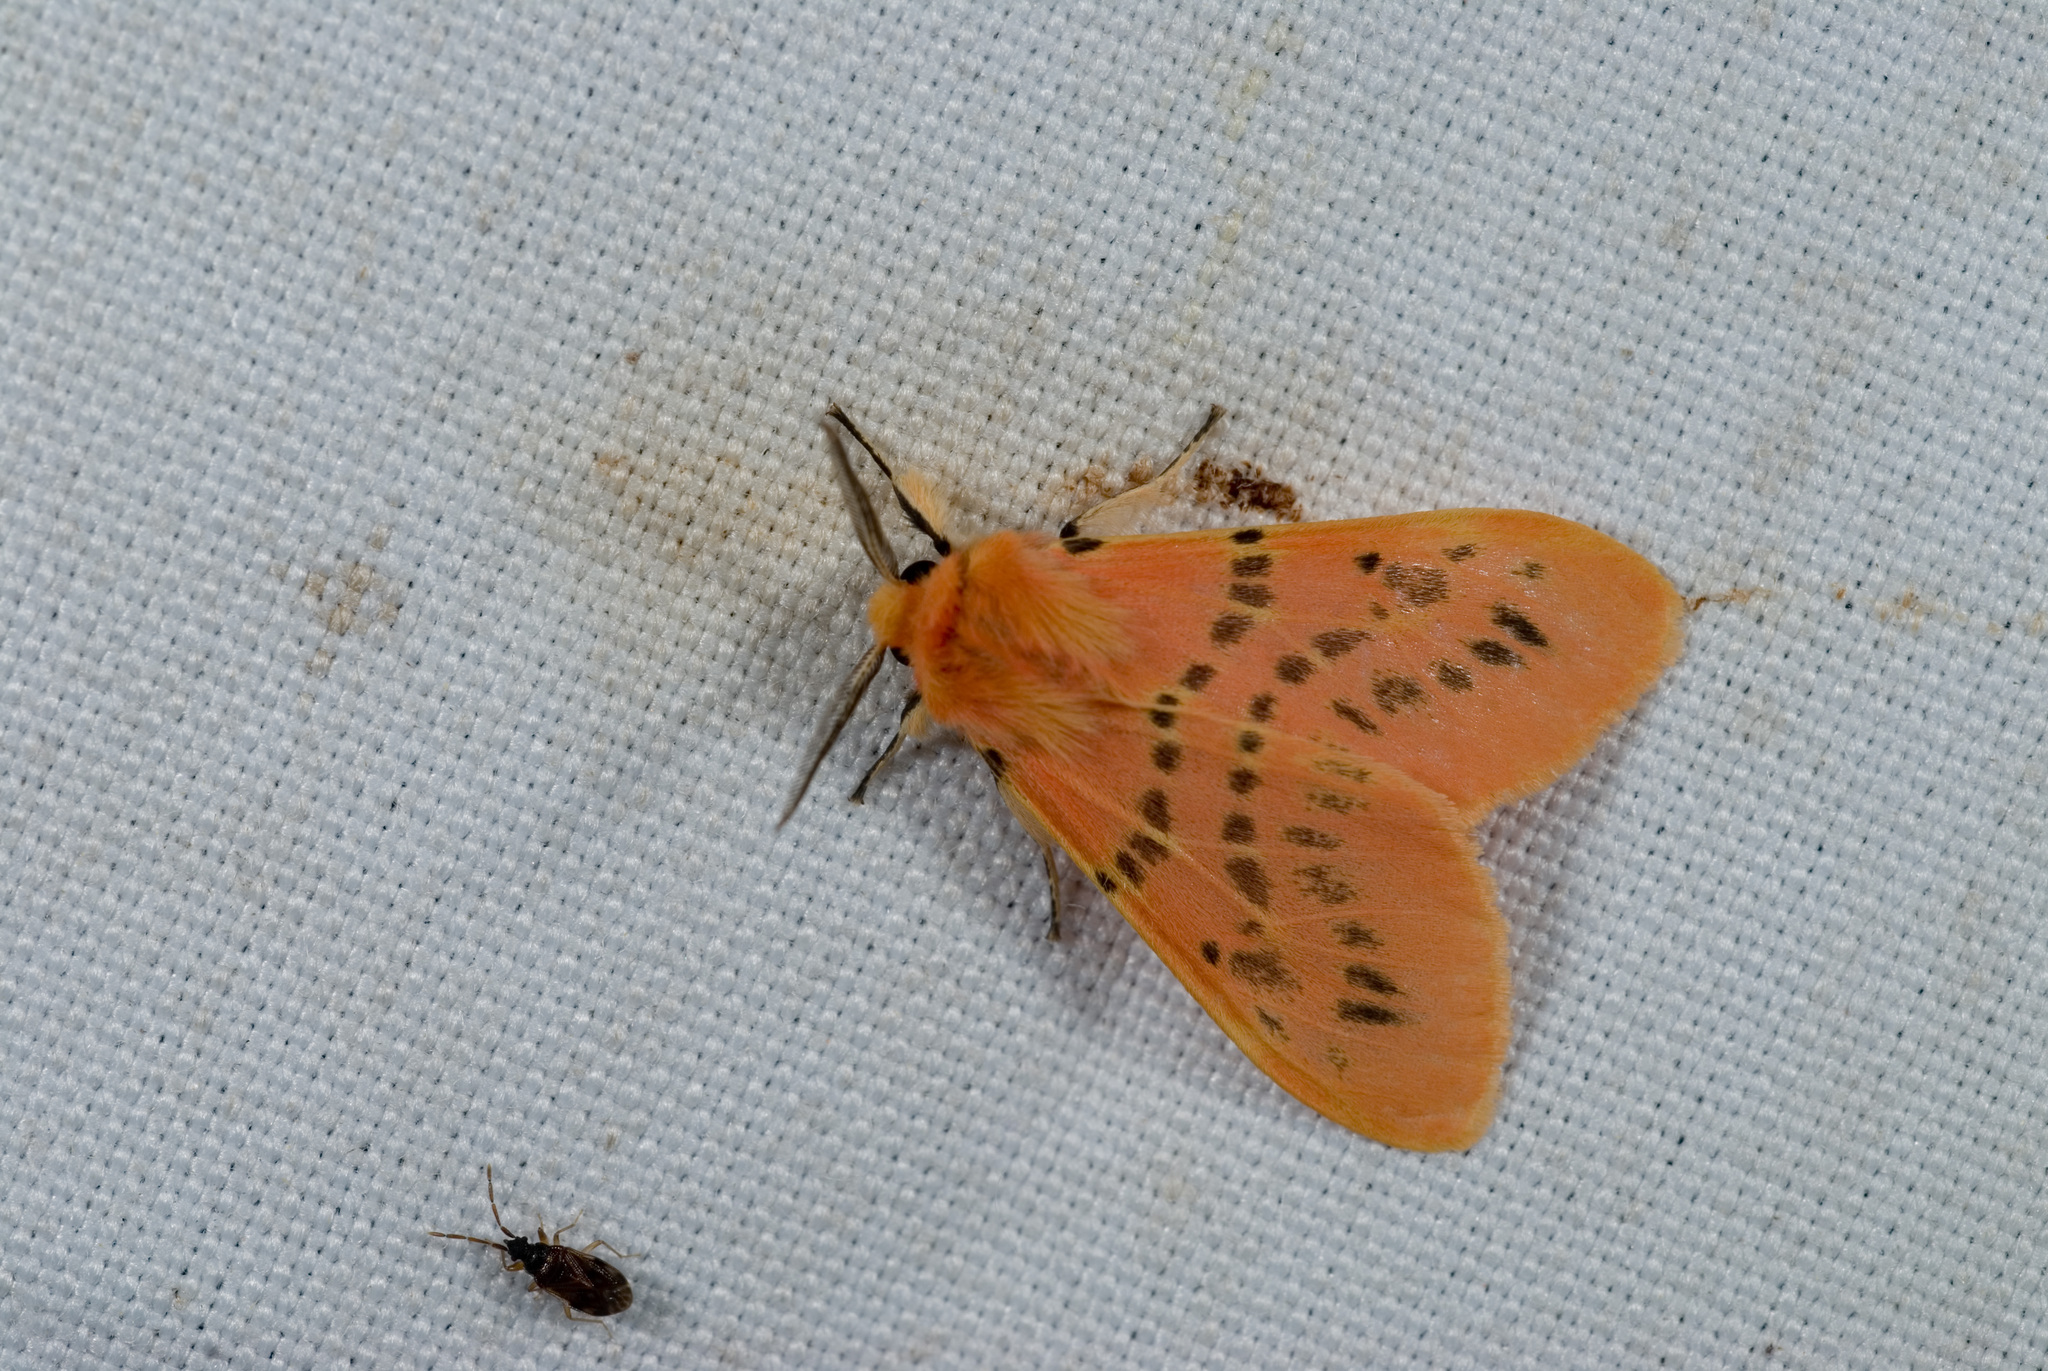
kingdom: Animalia
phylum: Arthropoda
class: Insecta
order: Lepidoptera
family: Erebidae
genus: Lemyra
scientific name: Lemyra alikangensis
